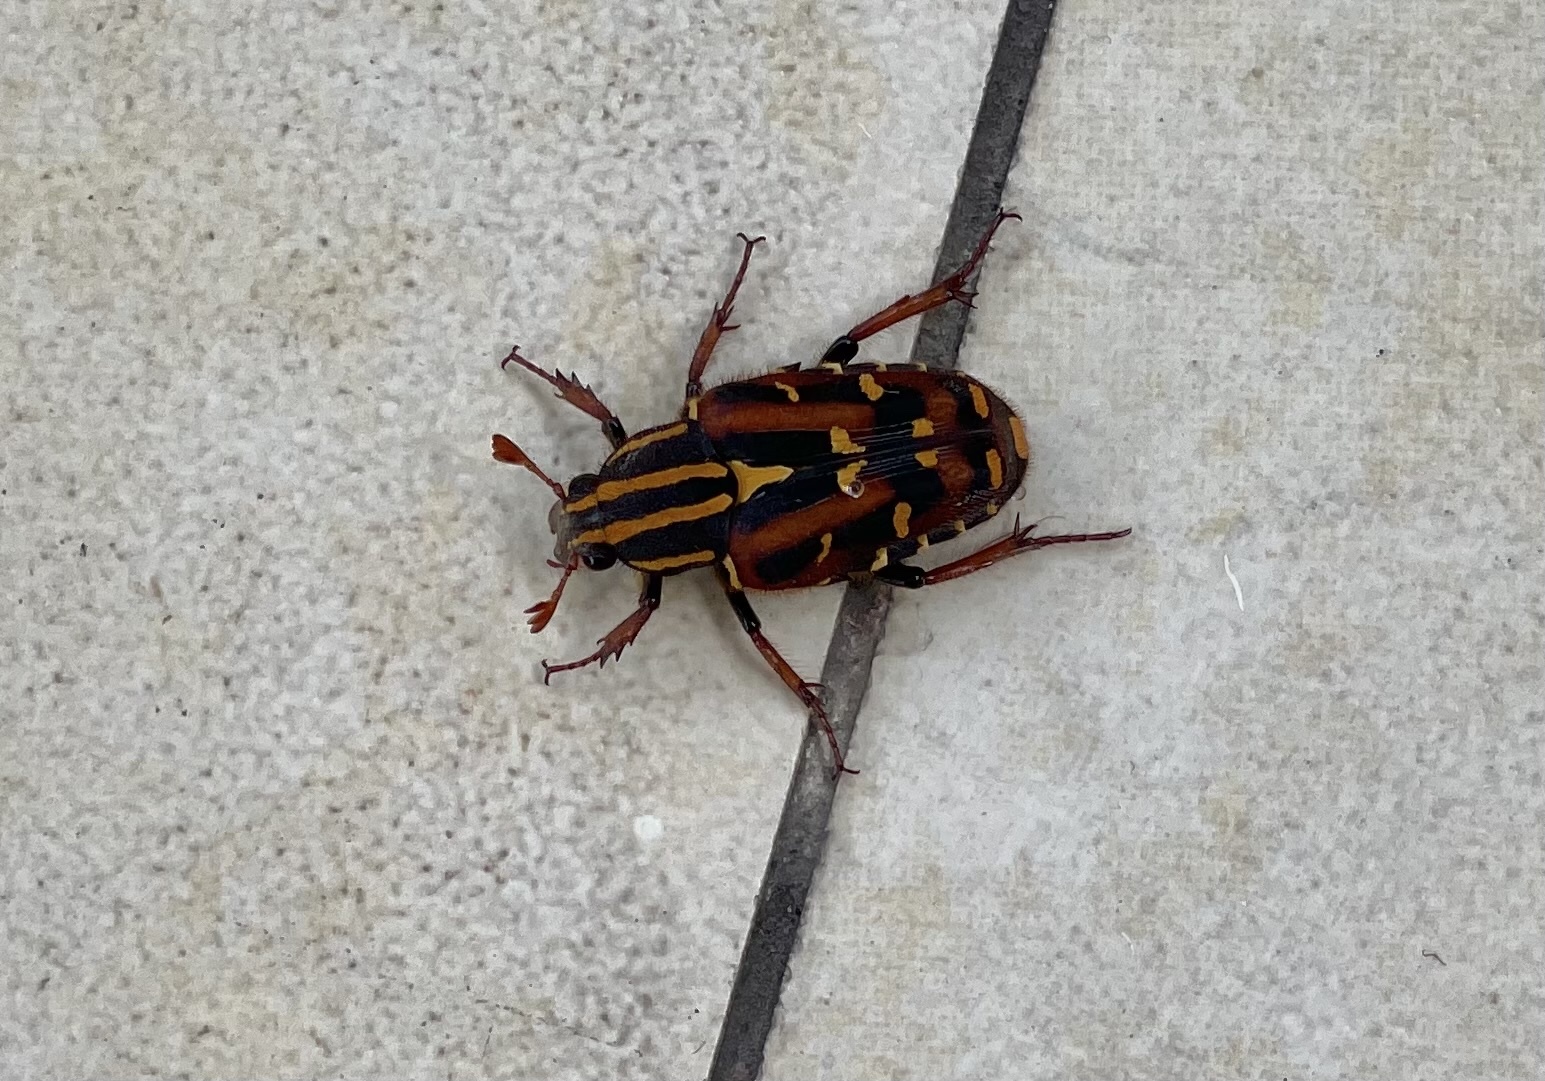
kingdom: Animalia
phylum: Arthropoda
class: Insecta
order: Coleoptera
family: Scarabaeidae
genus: Euselates
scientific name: Euselates magna
